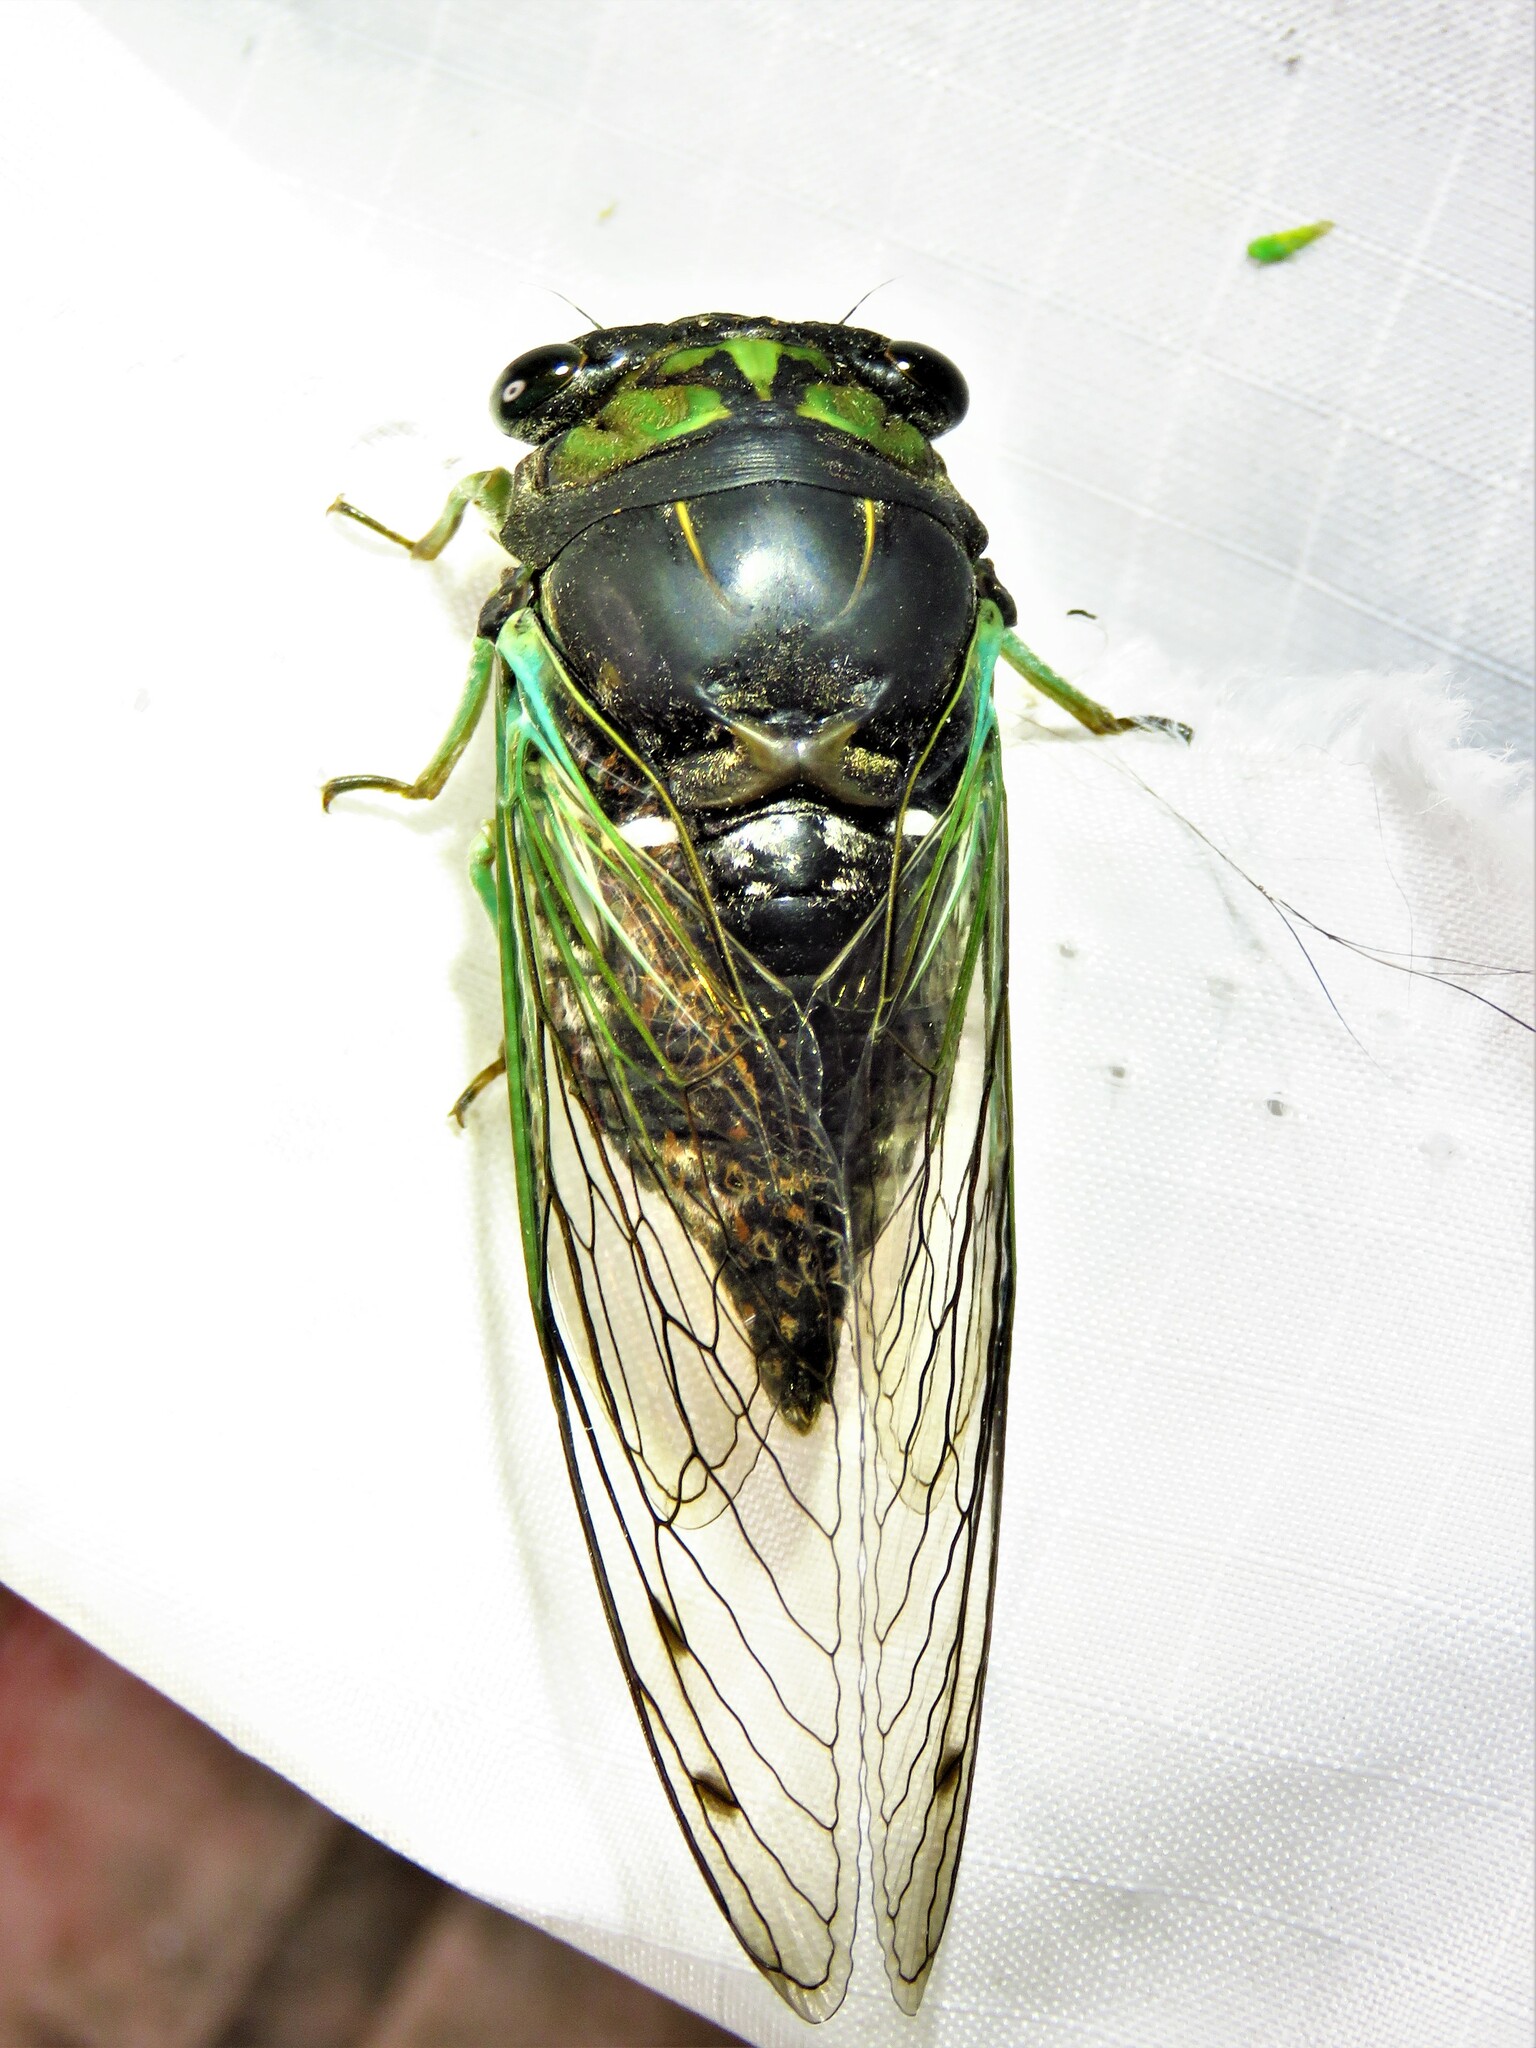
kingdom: Animalia
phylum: Arthropoda
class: Insecta
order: Hemiptera
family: Cicadidae
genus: Neotibicen
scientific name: Neotibicen tibicen
